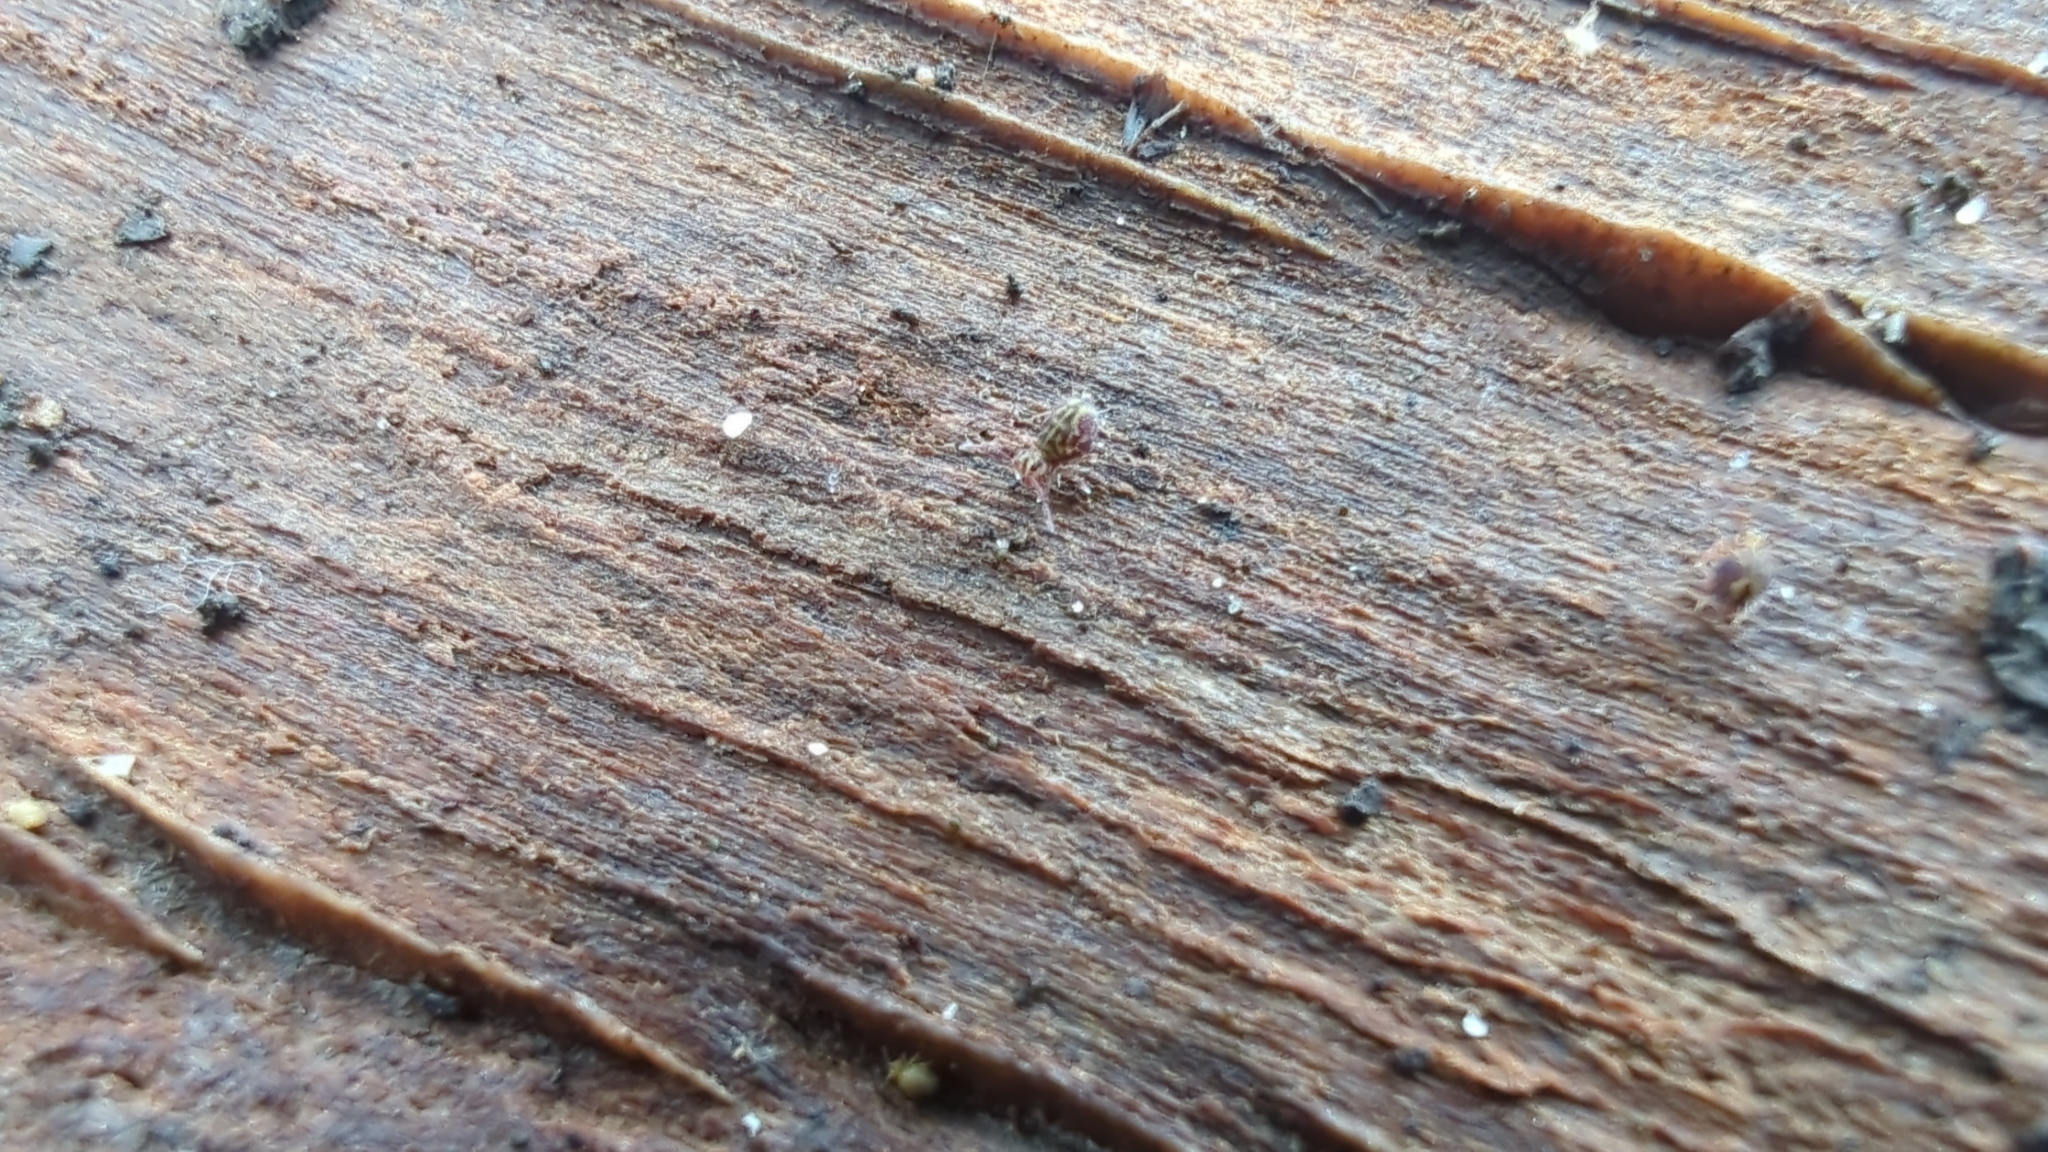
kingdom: Animalia
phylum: Arthropoda
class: Collembola
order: Symphypleona
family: Dicyrtomidae
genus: Dicyrtomina
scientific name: Dicyrtomina minuta
